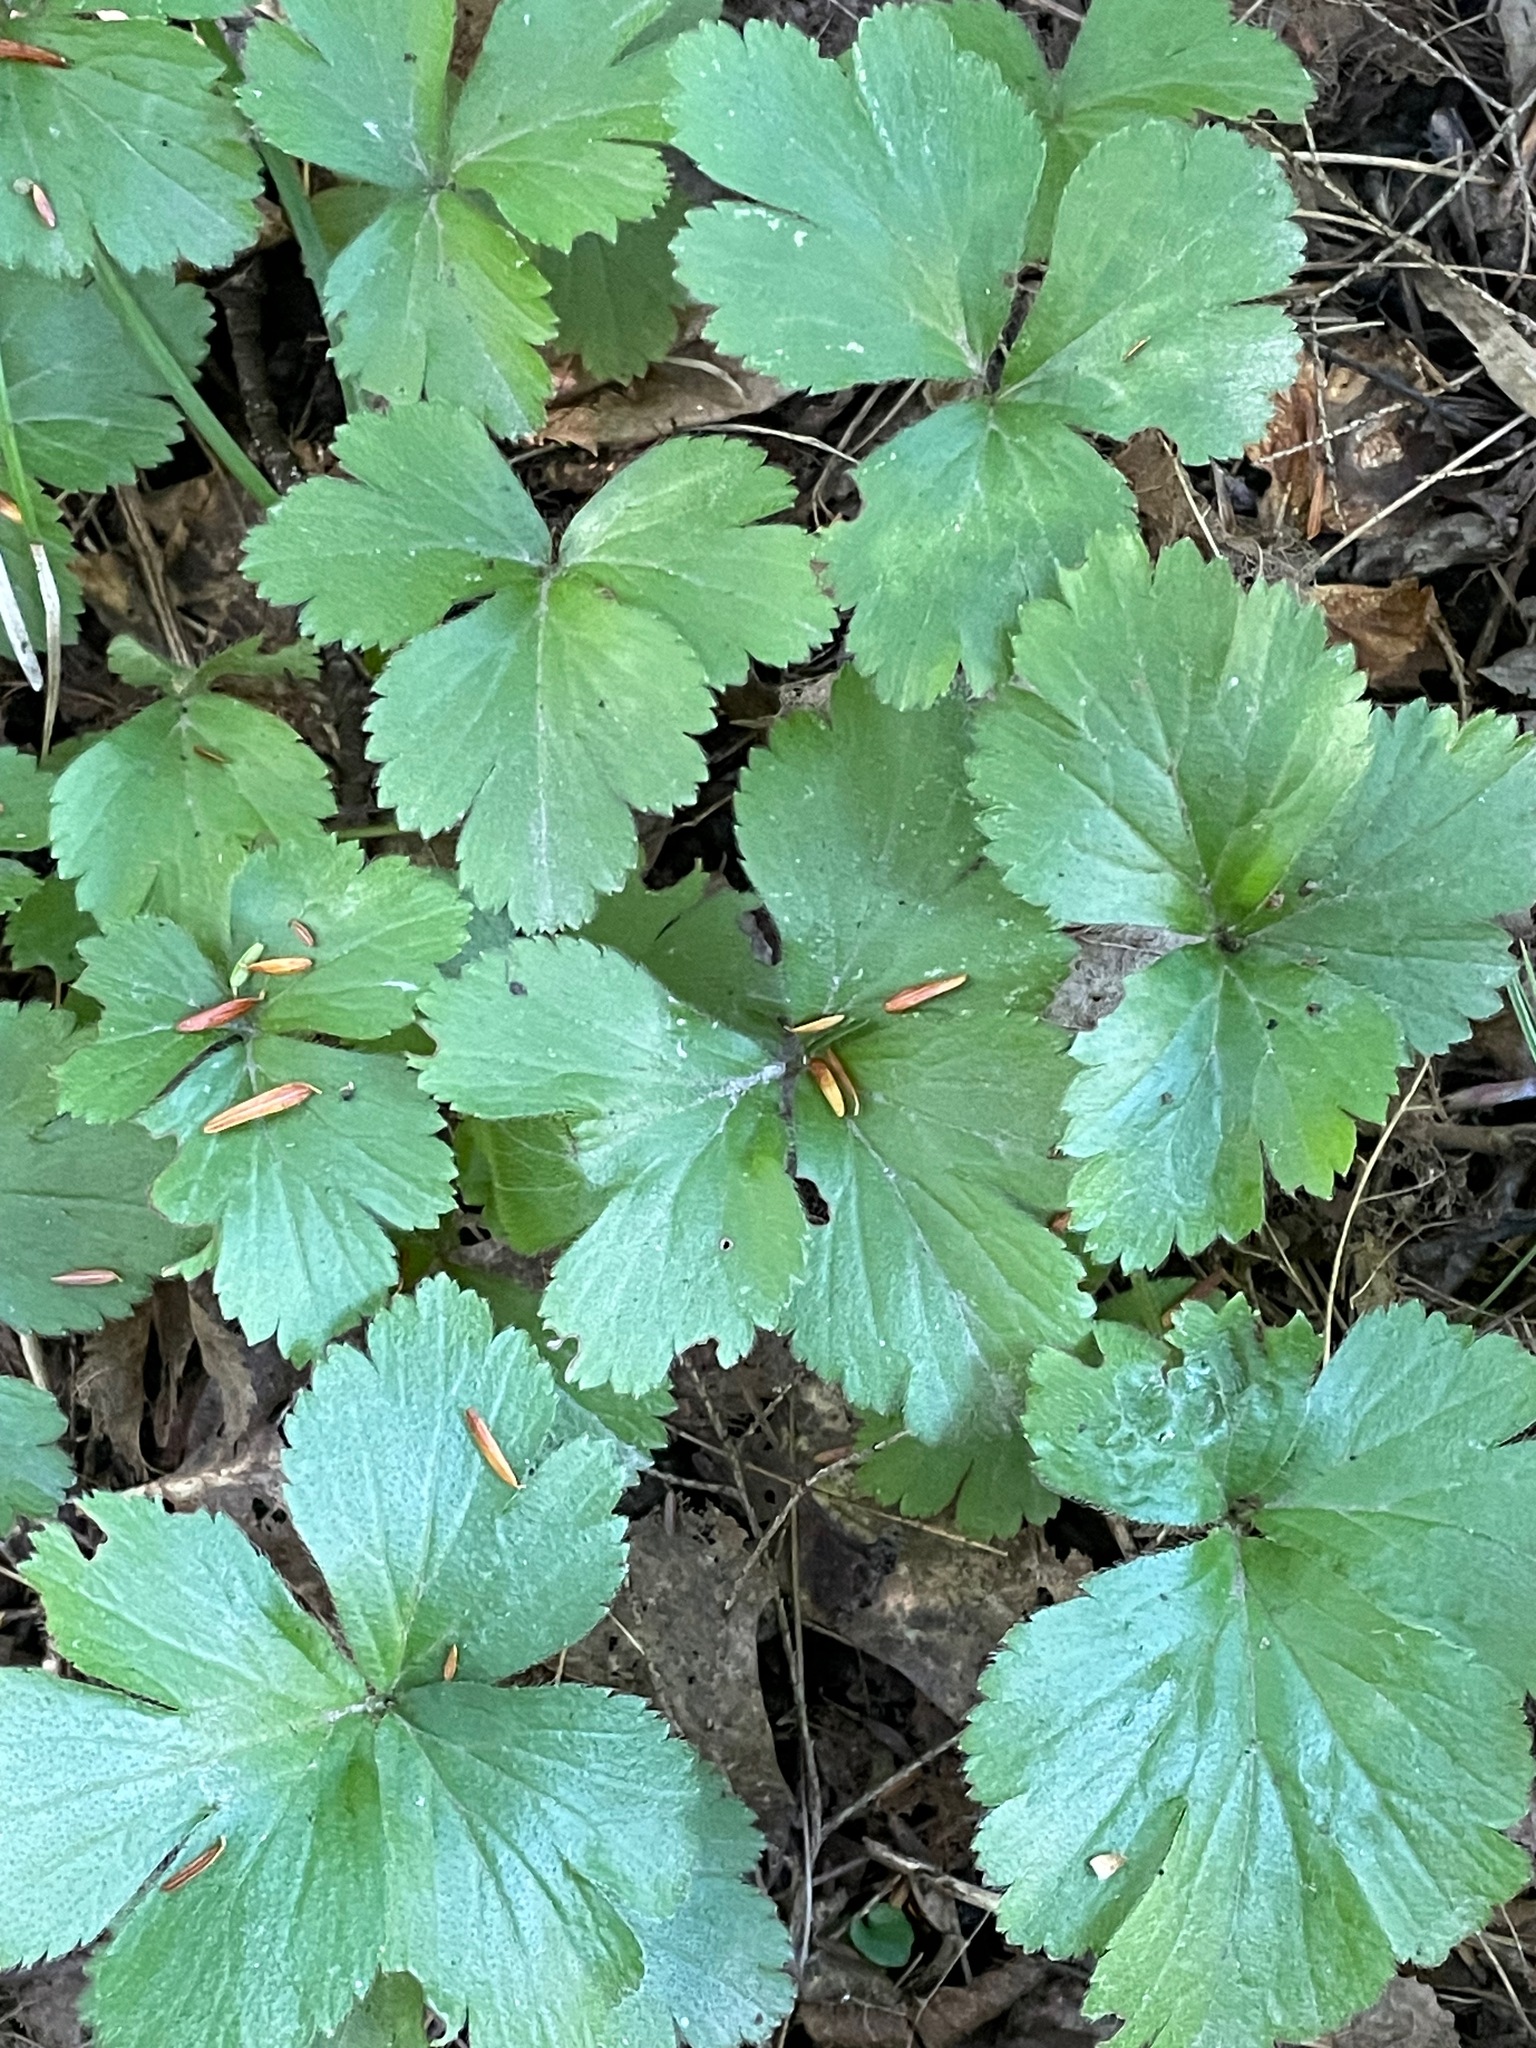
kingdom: Plantae
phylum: Tracheophyta
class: Magnoliopsida
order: Rosales
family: Rosaceae
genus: Geum
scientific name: Geum fragarioides
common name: Appalachian barren strawberry
